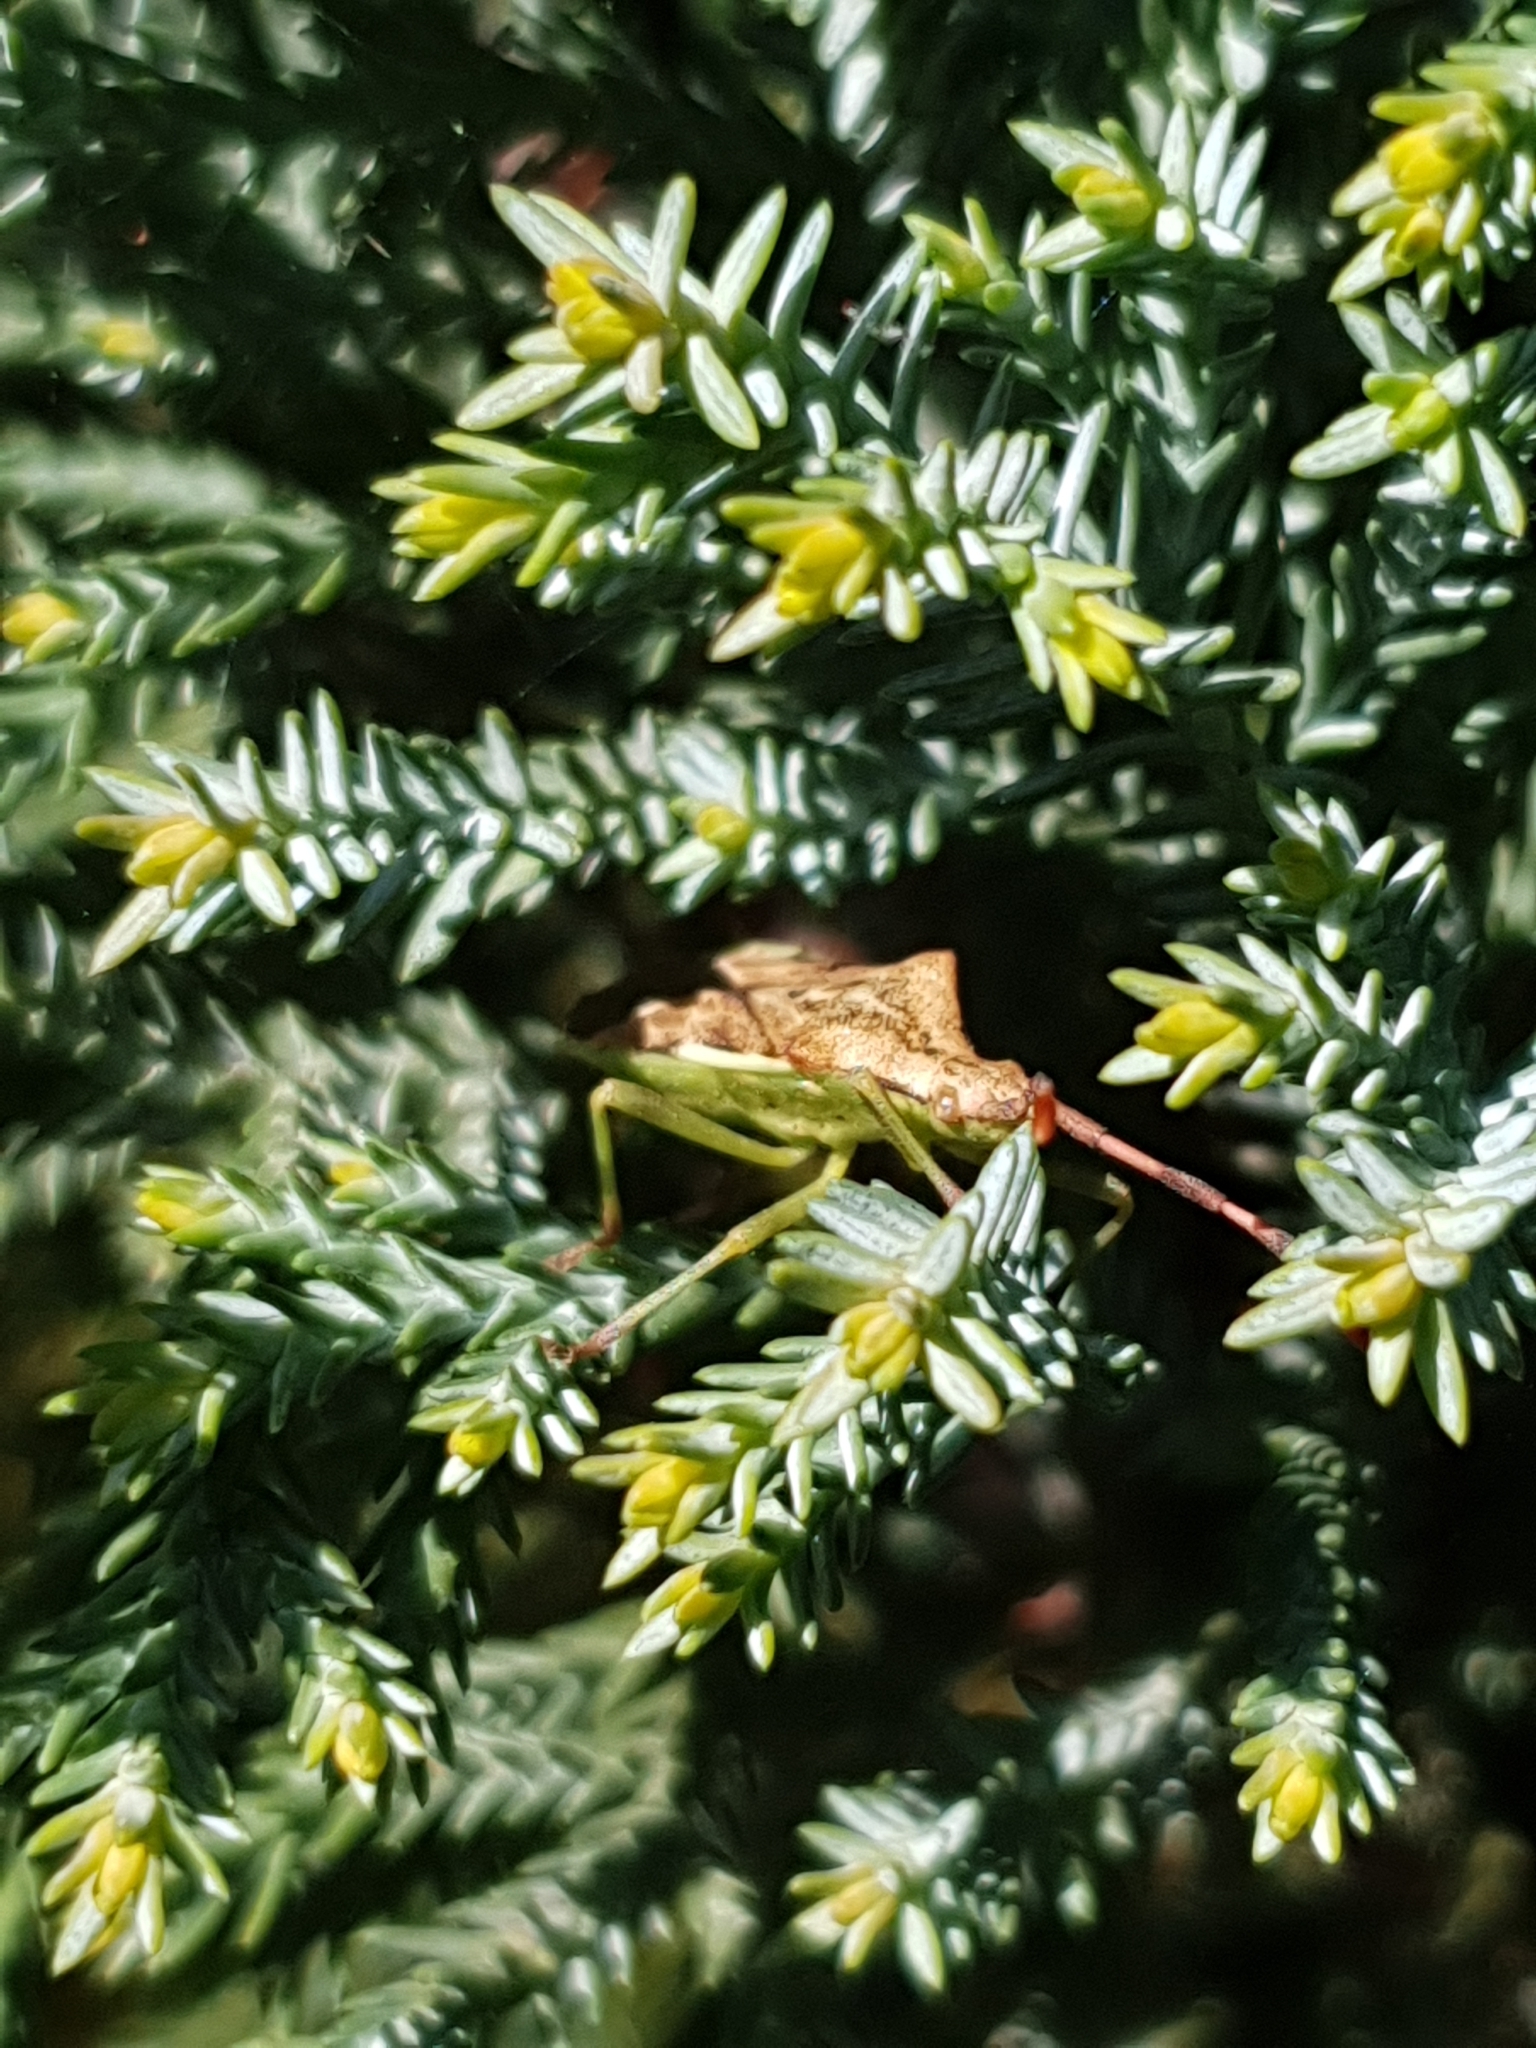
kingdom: Animalia
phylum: Arthropoda
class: Insecta
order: Hemiptera
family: Coreidae
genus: Gonocerus
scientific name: Gonocerus juniperi
